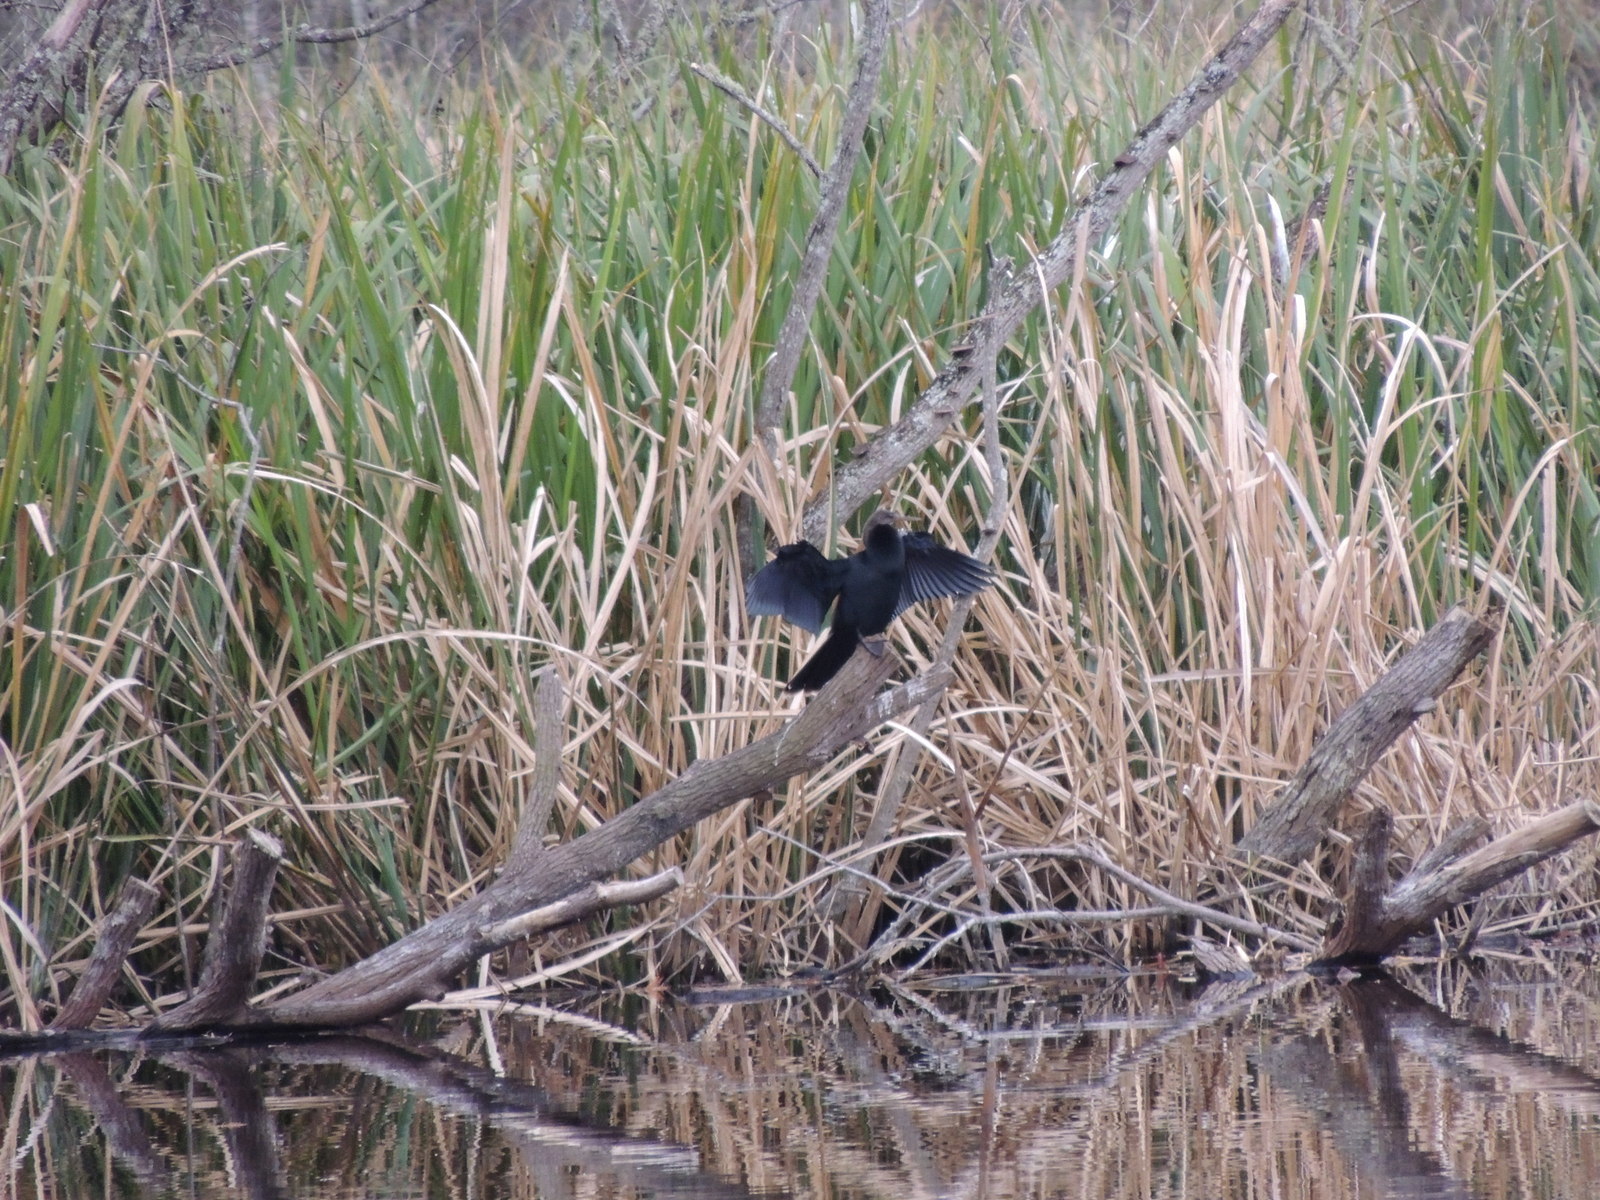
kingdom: Animalia
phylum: Chordata
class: Aves
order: Suliformes
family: Anhingidae
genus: Anhinga
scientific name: Anhinga anhinga
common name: Anhinga
